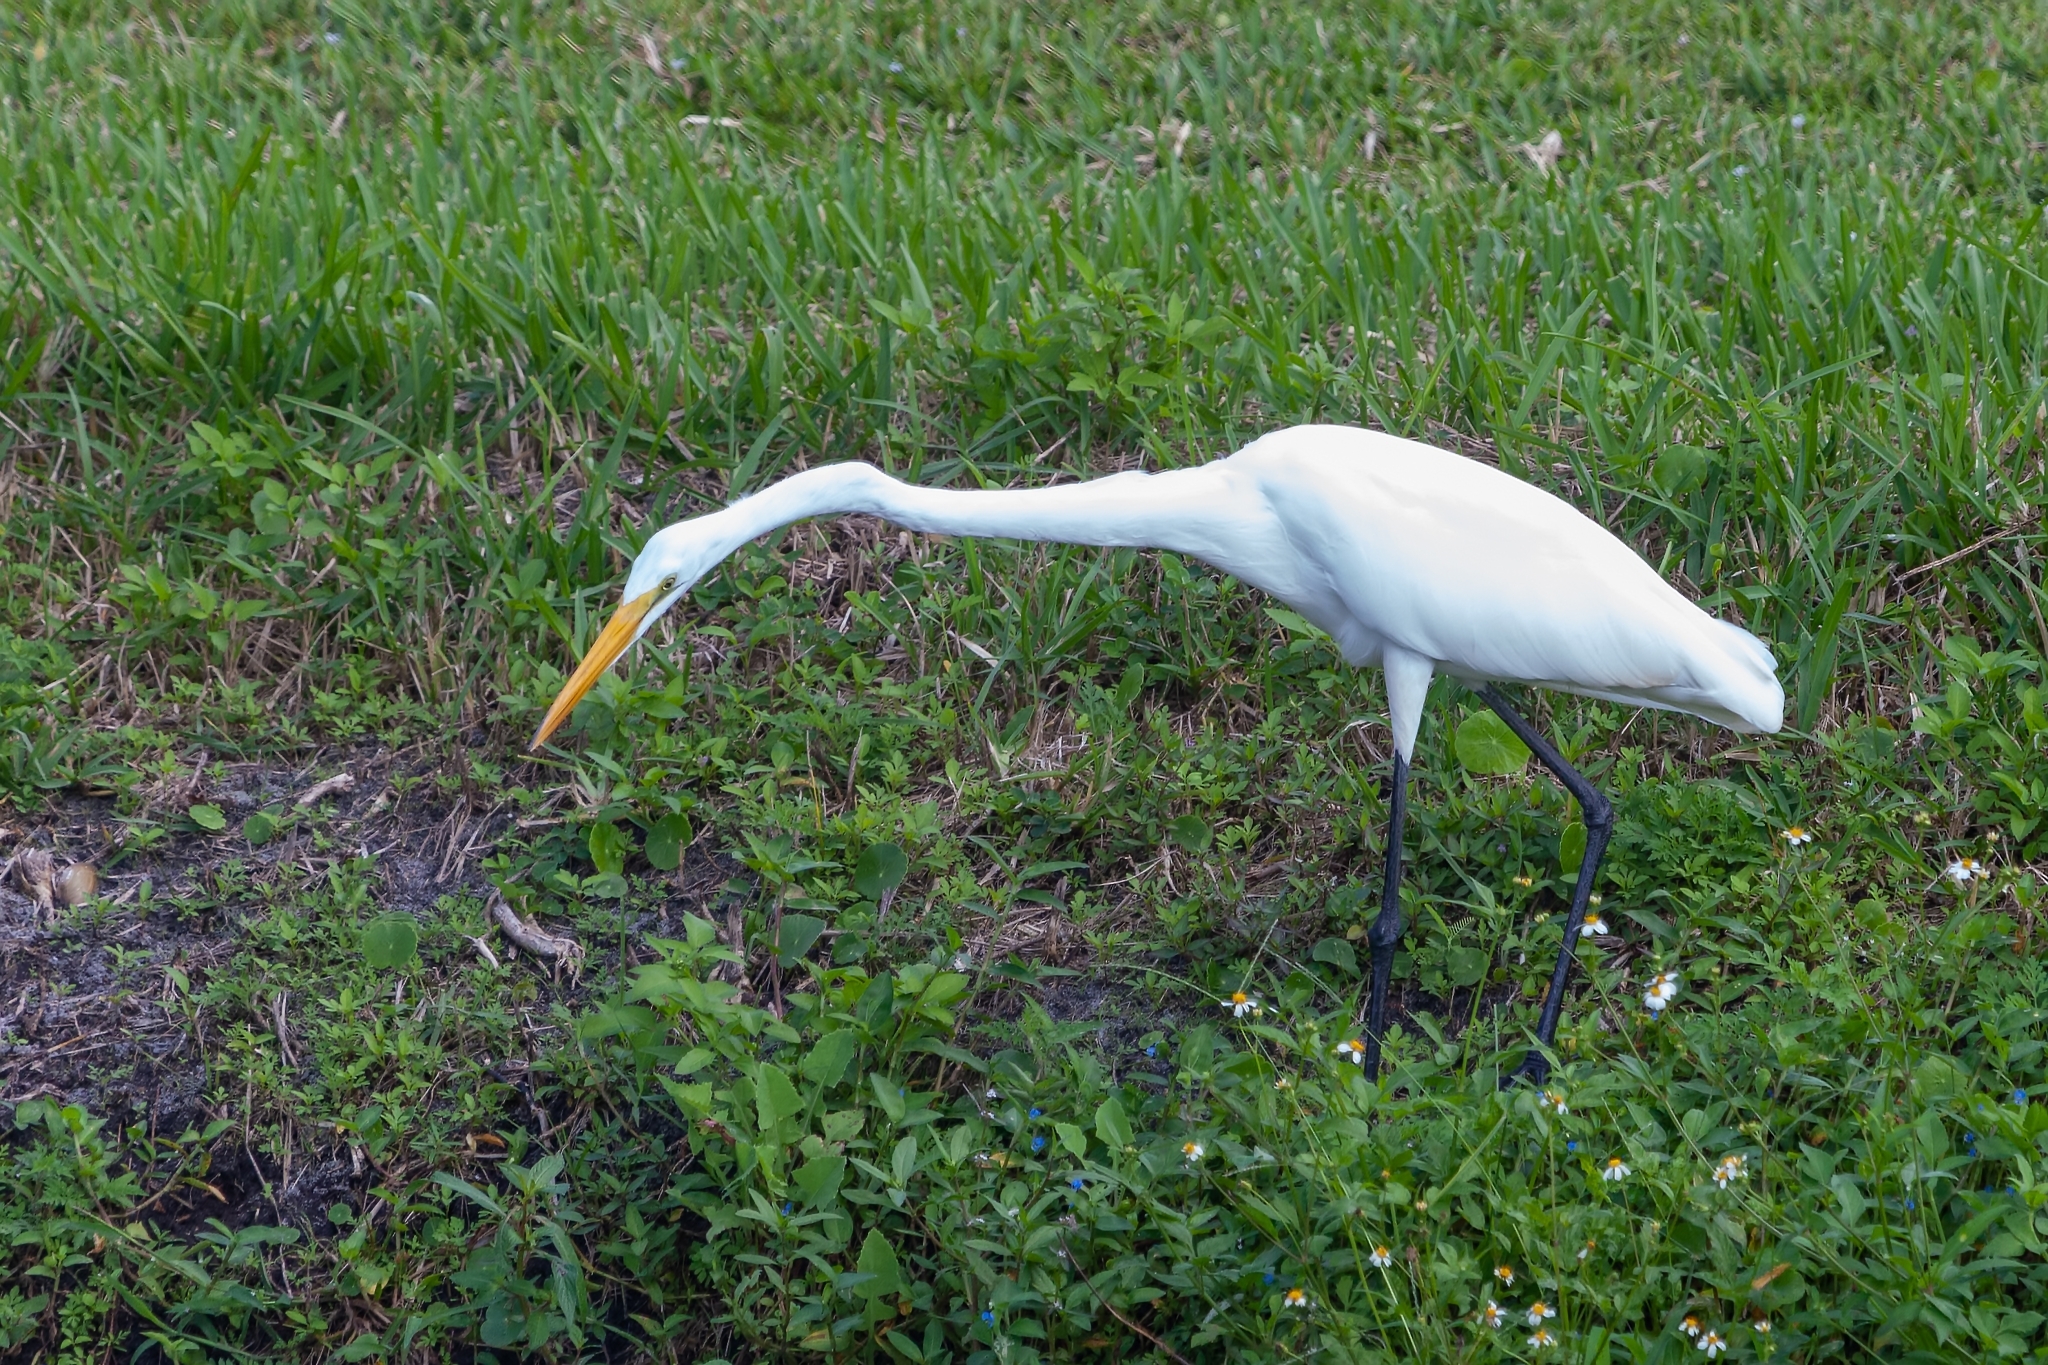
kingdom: Animalia
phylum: Chordata
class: Aves
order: Pelecaniformes
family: Ardeidae
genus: Ardea
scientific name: Ardea alba
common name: Great egret
